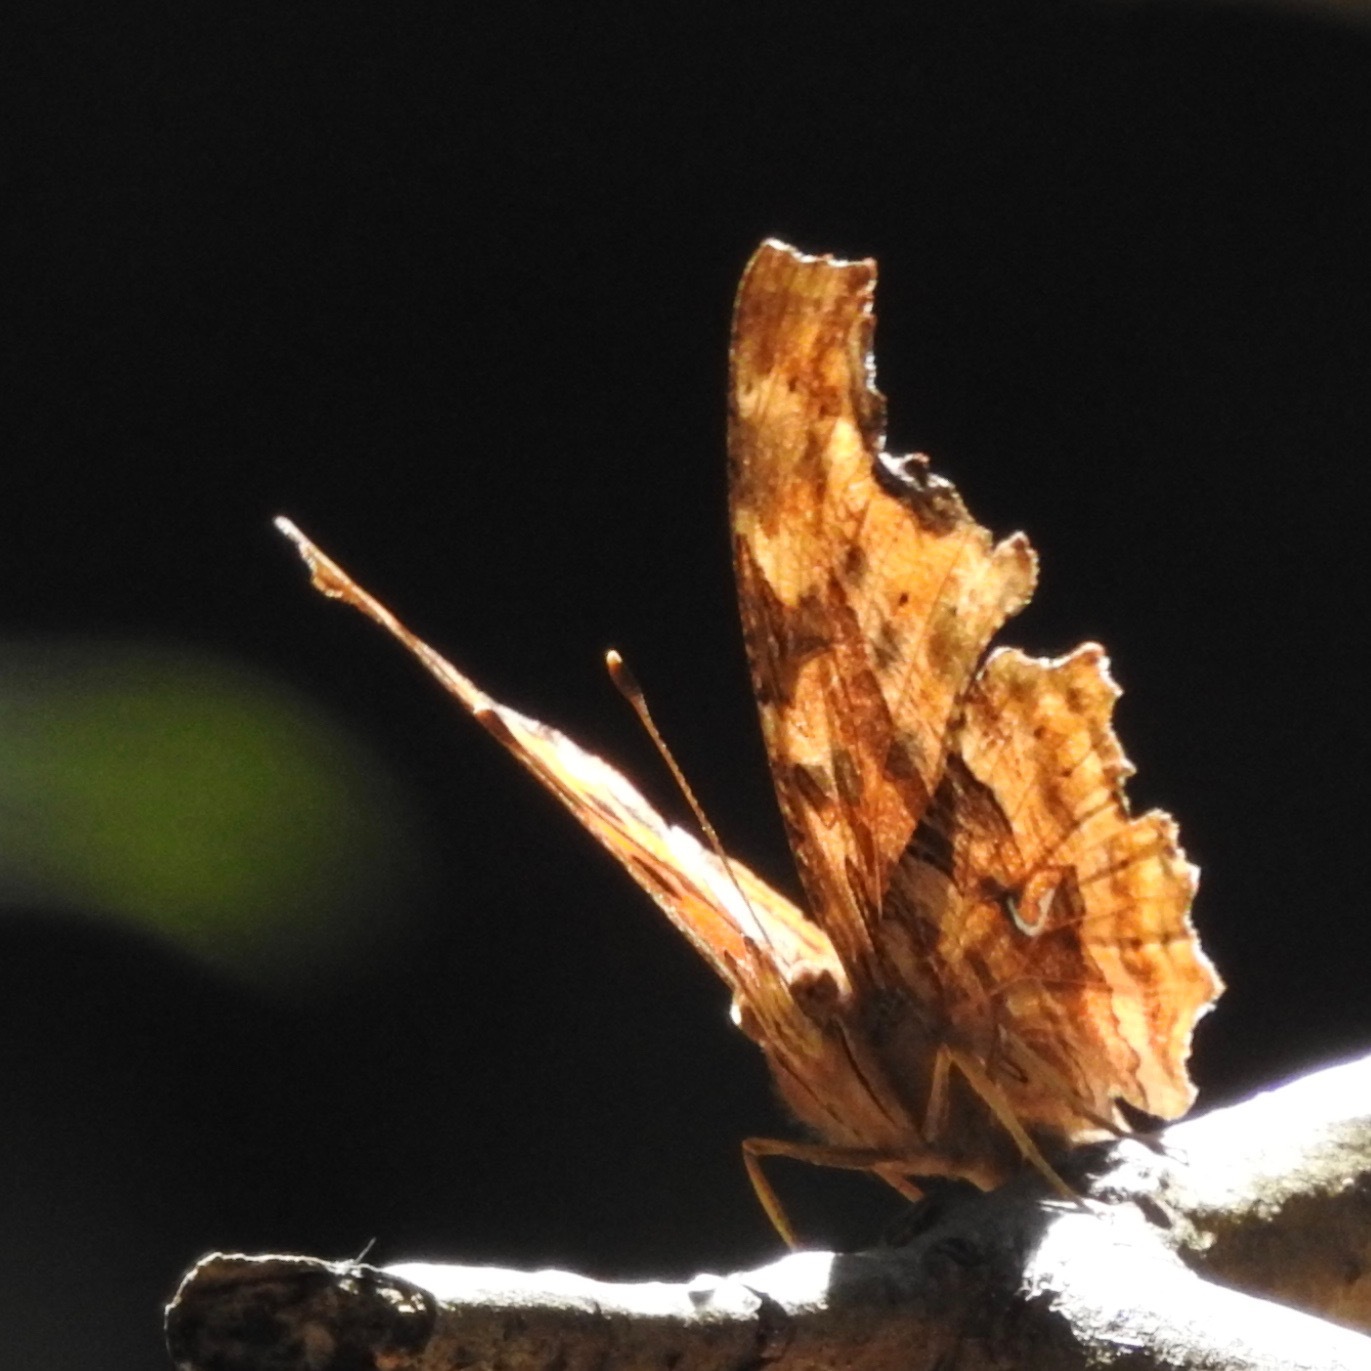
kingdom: Animalia
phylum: Arthropoda
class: Insecta
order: Lepidoptera
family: Nymphalidae
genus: Polygonia
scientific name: Polygonia satyrus
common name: Satyr angle wing
